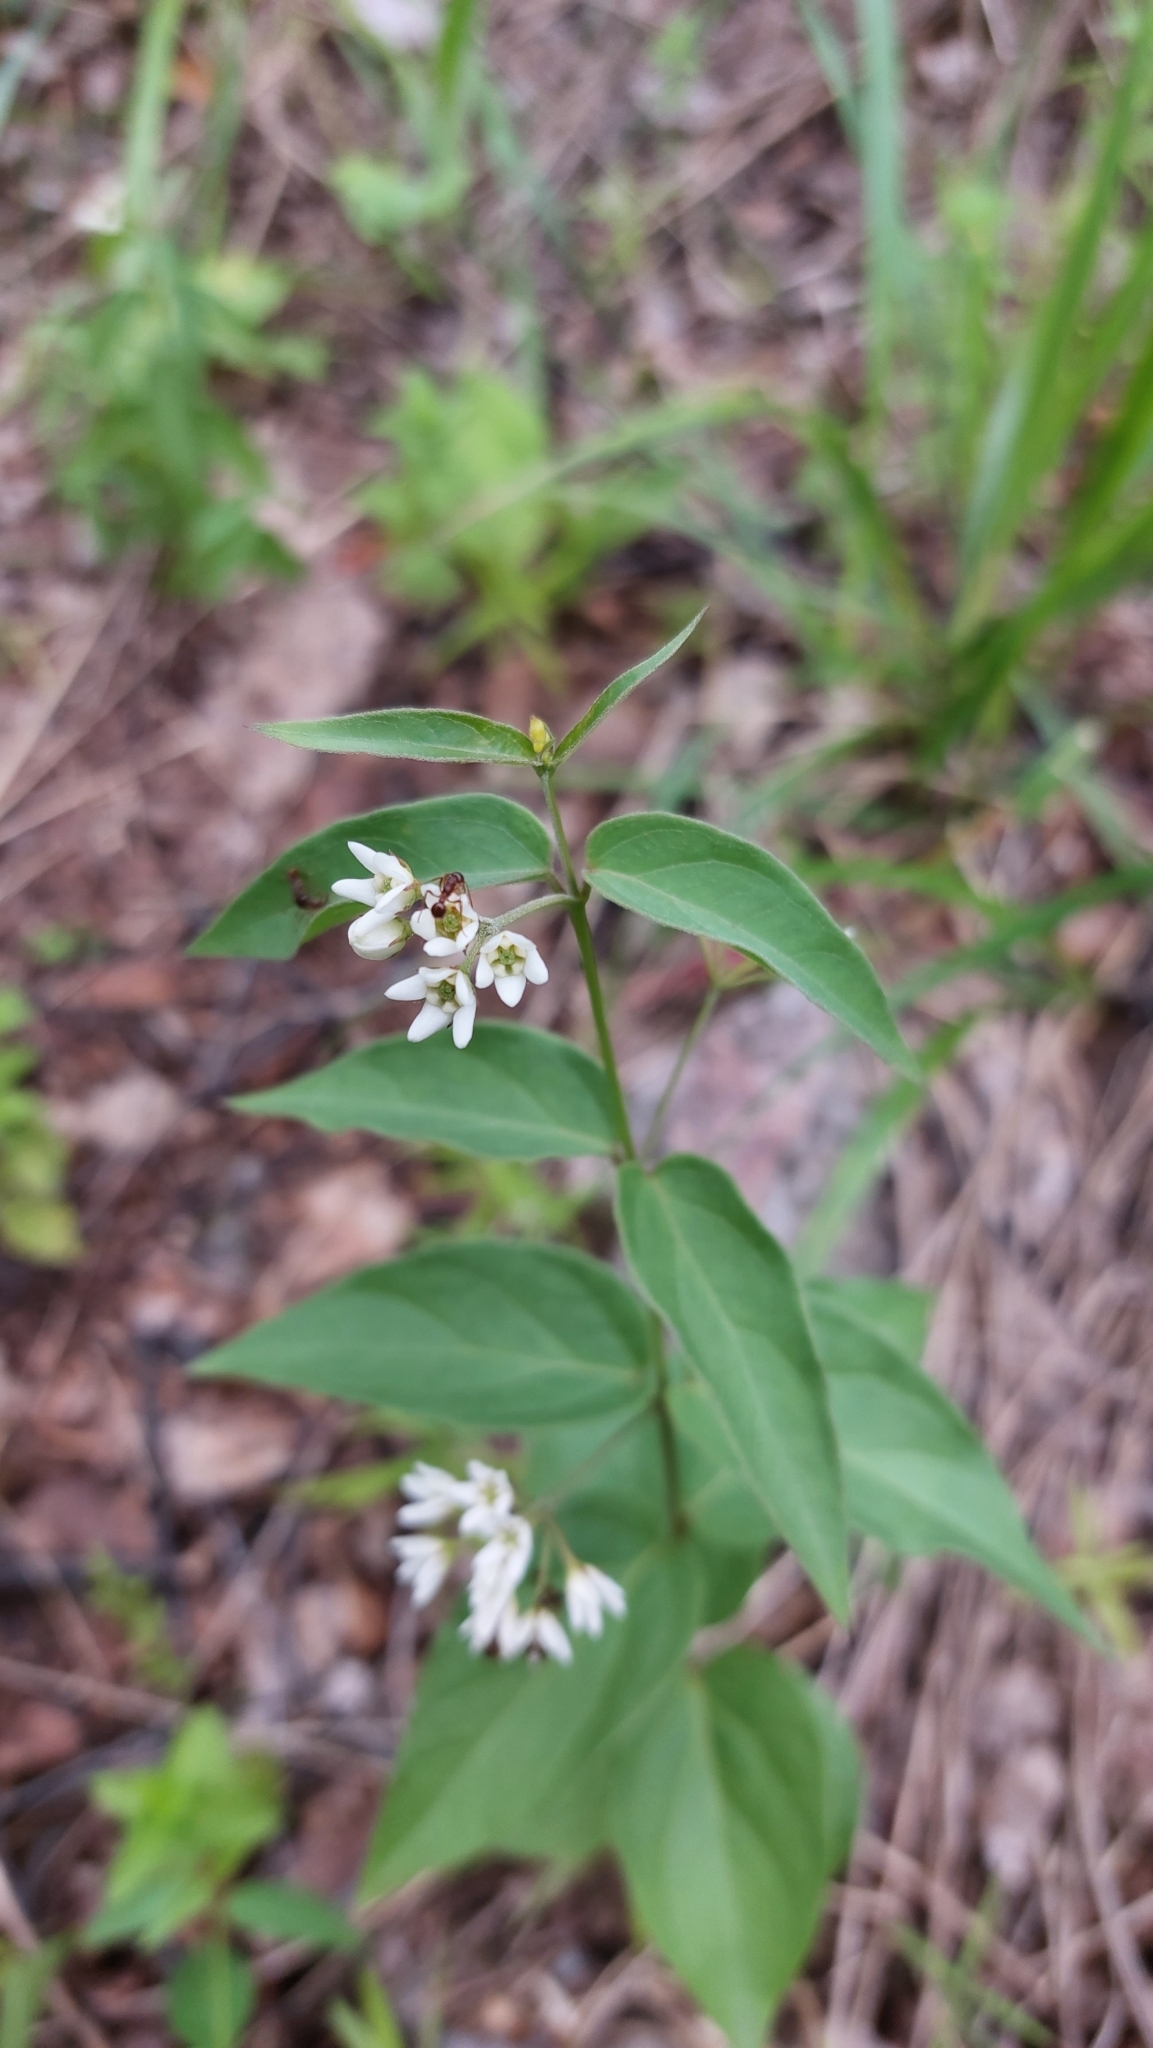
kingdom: Plantae
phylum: Tracheophyta
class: Magnoliopsida
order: Gentianales
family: Apocynaceae
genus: Vincetoxicum
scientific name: Vincetoxicum hirundinaria
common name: White swallowwort
